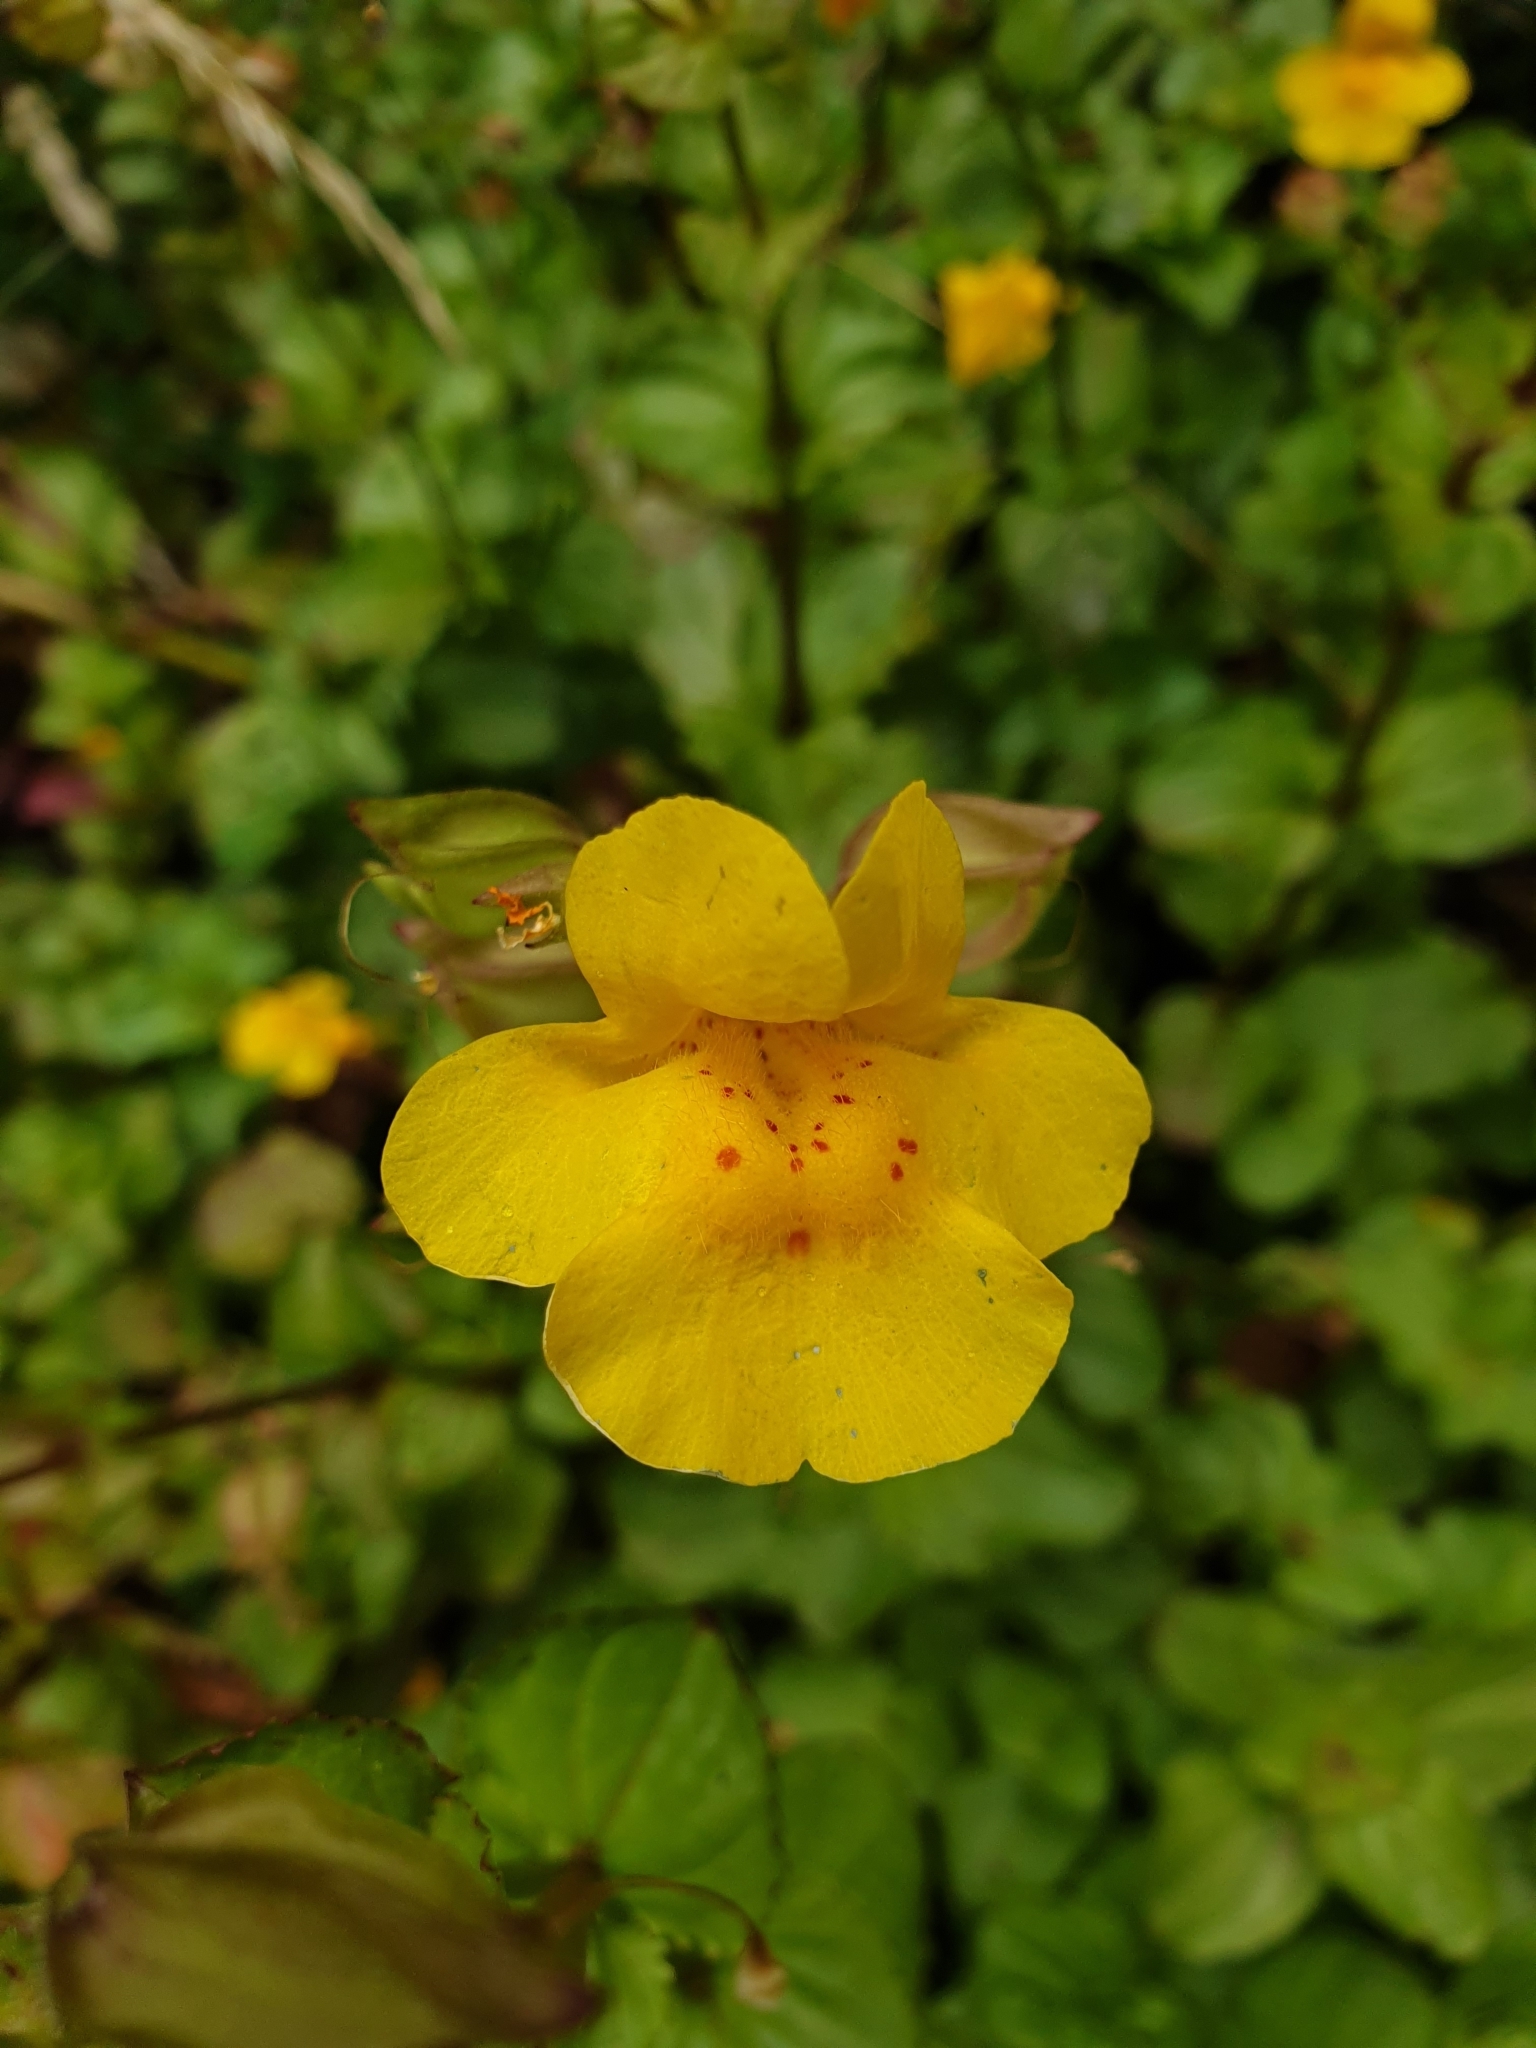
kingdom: Plantae
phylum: Tracheophyta
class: Magnoliopsida
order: Lamiales
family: Phrymaceae
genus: Erythranthe
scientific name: Erythranthe guttata
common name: Monkeyflower
